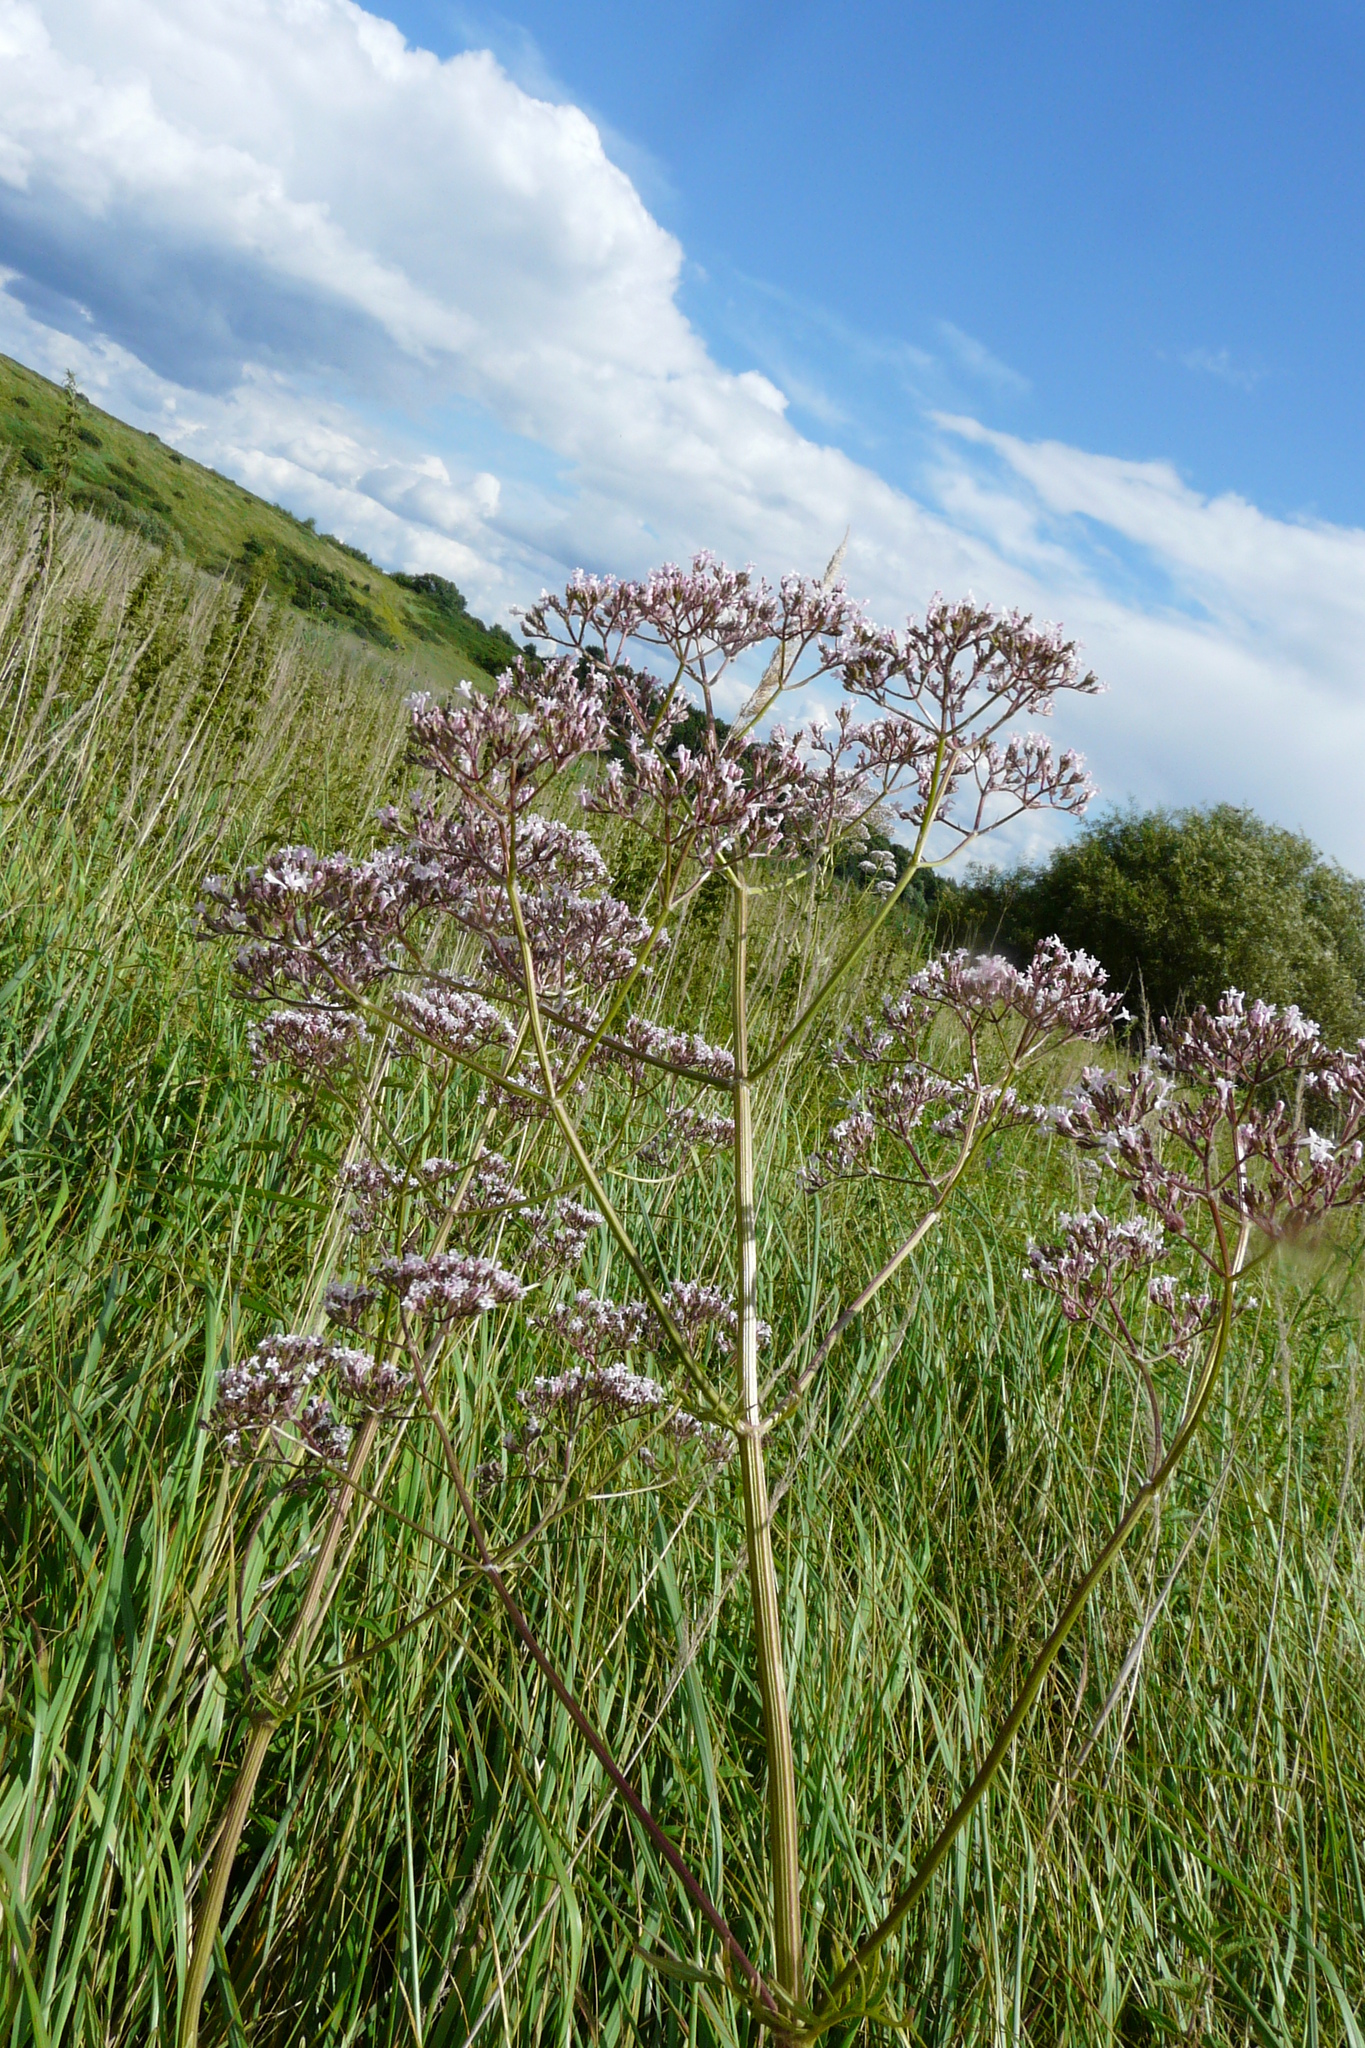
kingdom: Plantae
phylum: Tracheophyta
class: Magnoliopsida
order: Dipsacales
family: Caprifoliaceae
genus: Valeriana
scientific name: Valeriana officinalis
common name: Common valerian
